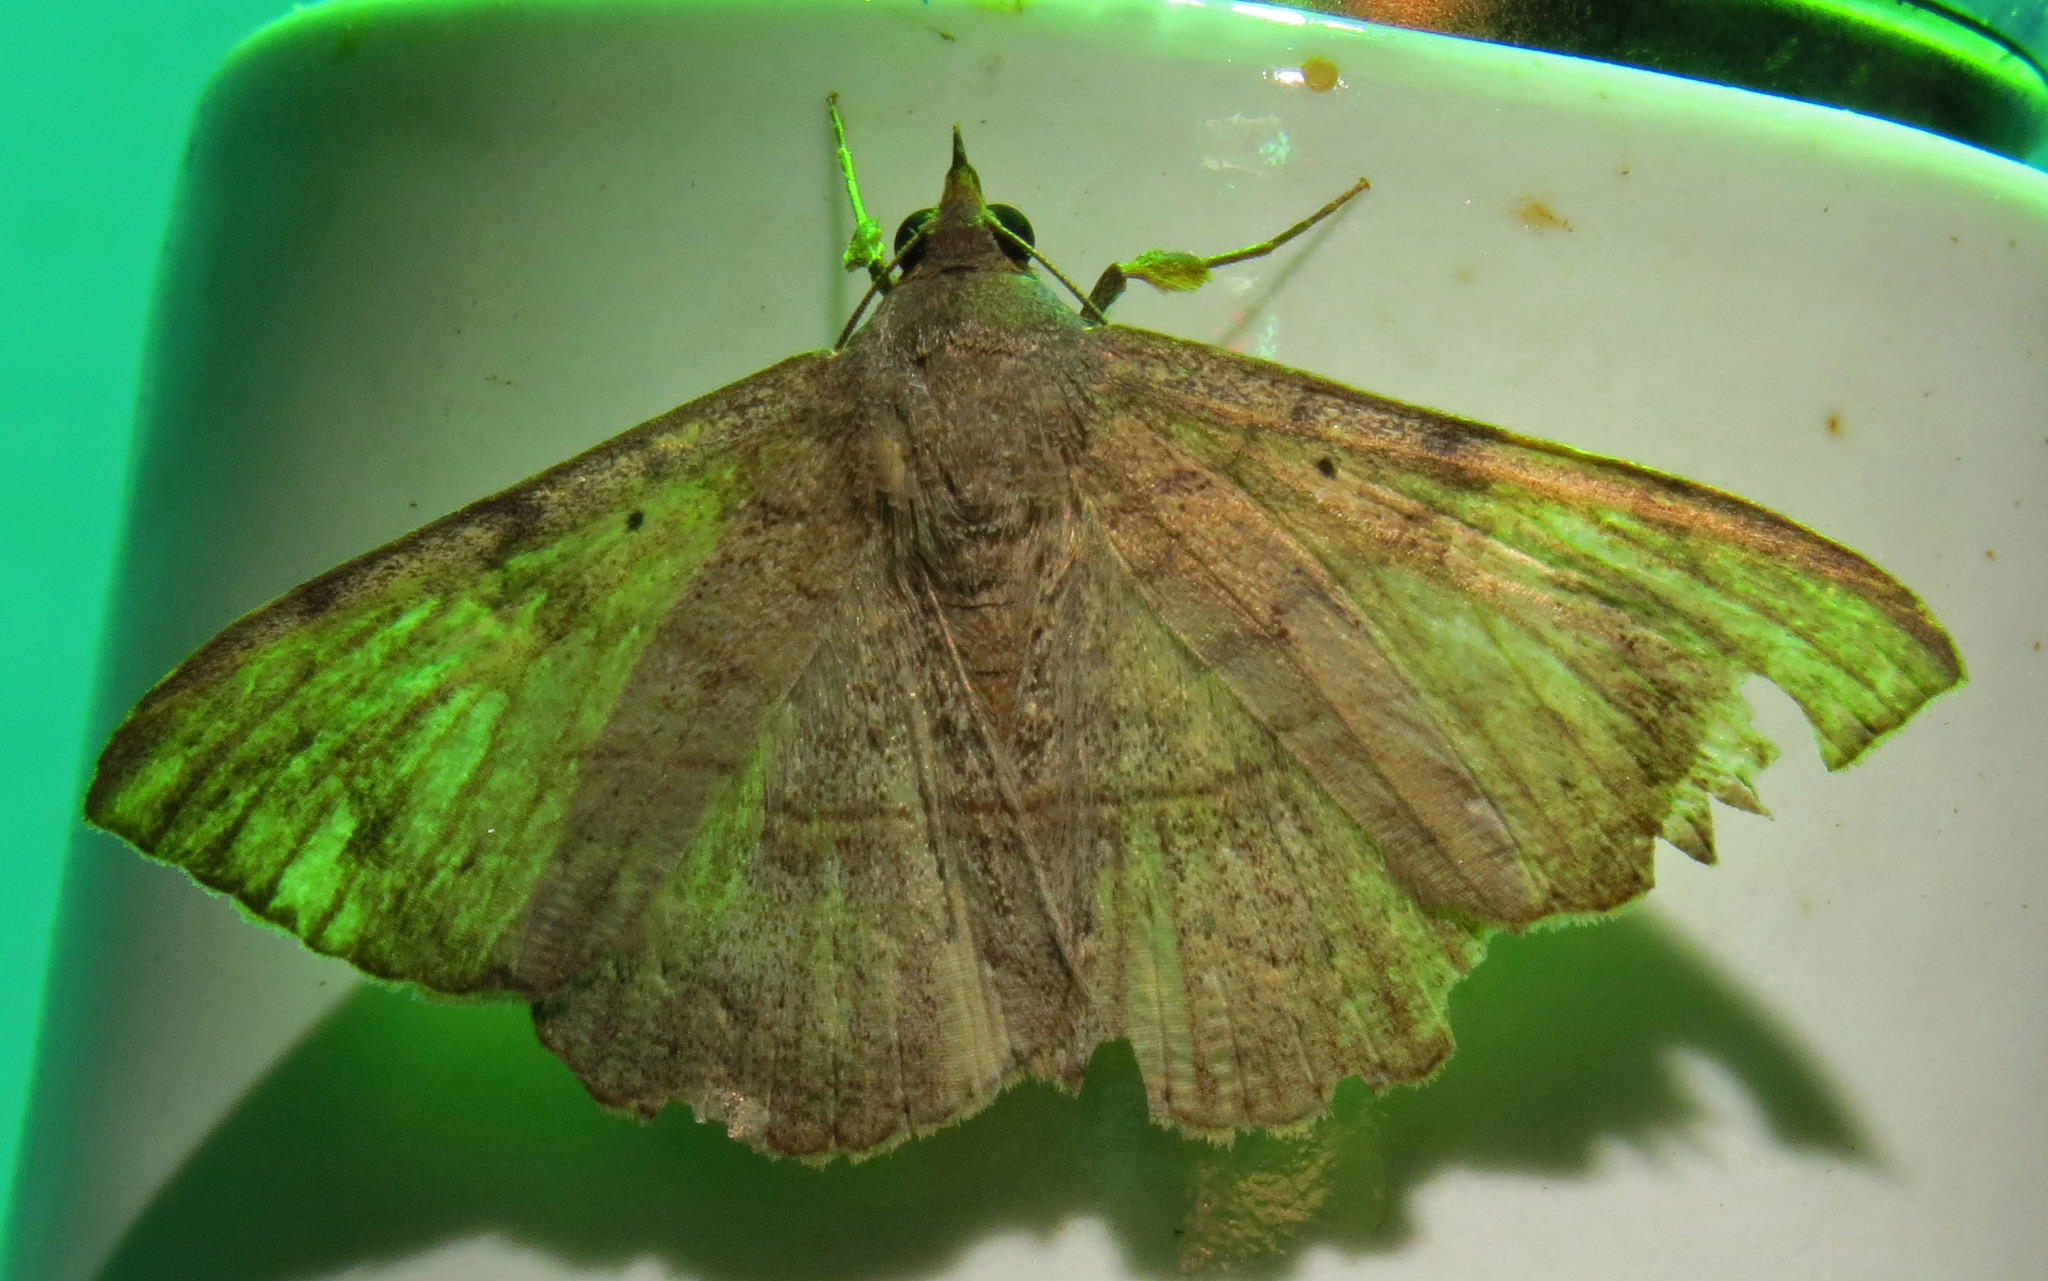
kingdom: Animalia
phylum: Arthropoda
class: Insecta
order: Lepidoptera
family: Erebidae
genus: Anticarsia
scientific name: Anticarsia gemmatalis
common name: Cutworm moth
